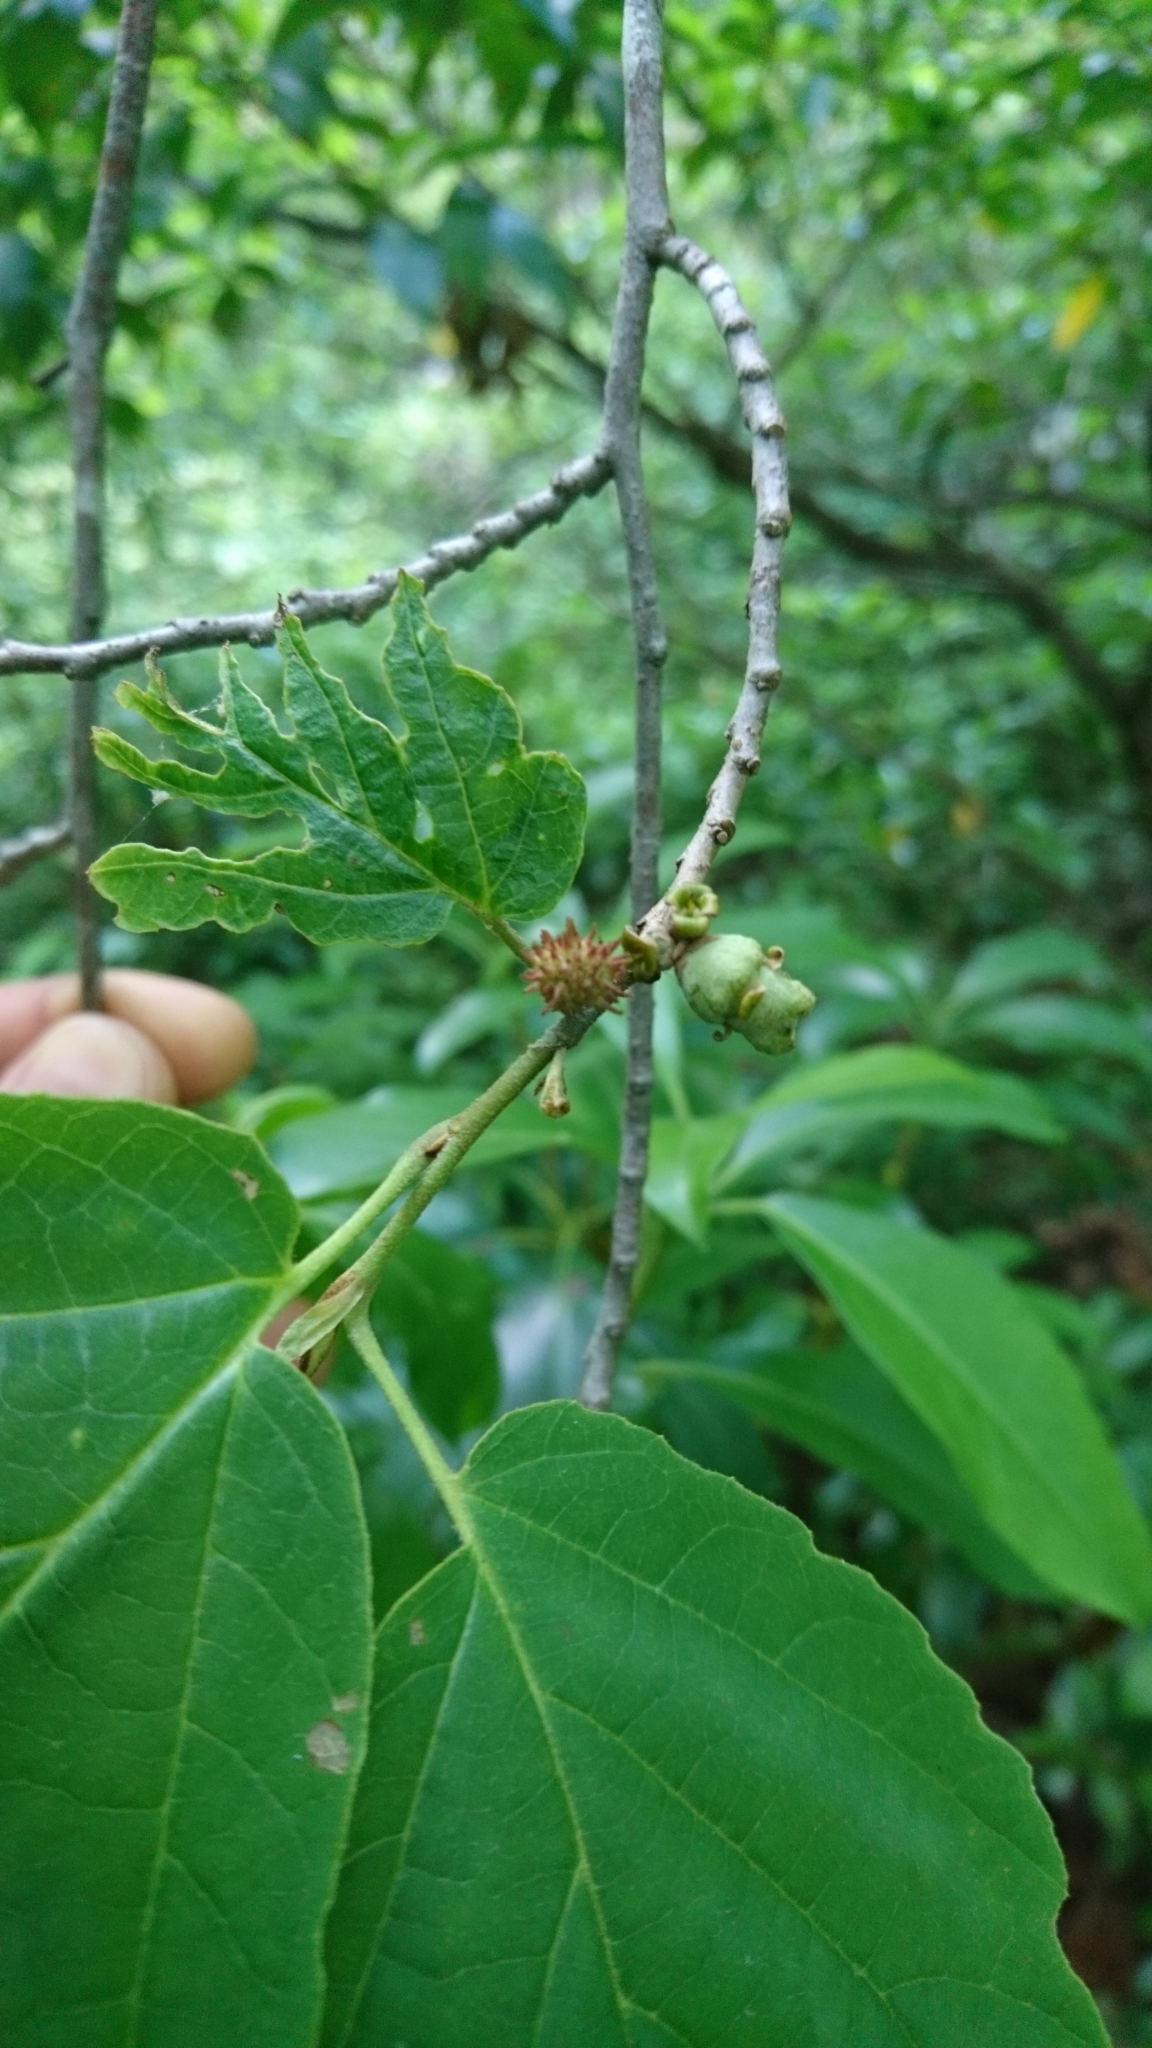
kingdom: Plantae
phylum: Tracheophyta
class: Magnoliopsida
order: Saxifragales
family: Hamamelidaceae
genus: Hamamelis
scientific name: Hamamelis virginiana
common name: Witch-hazel
